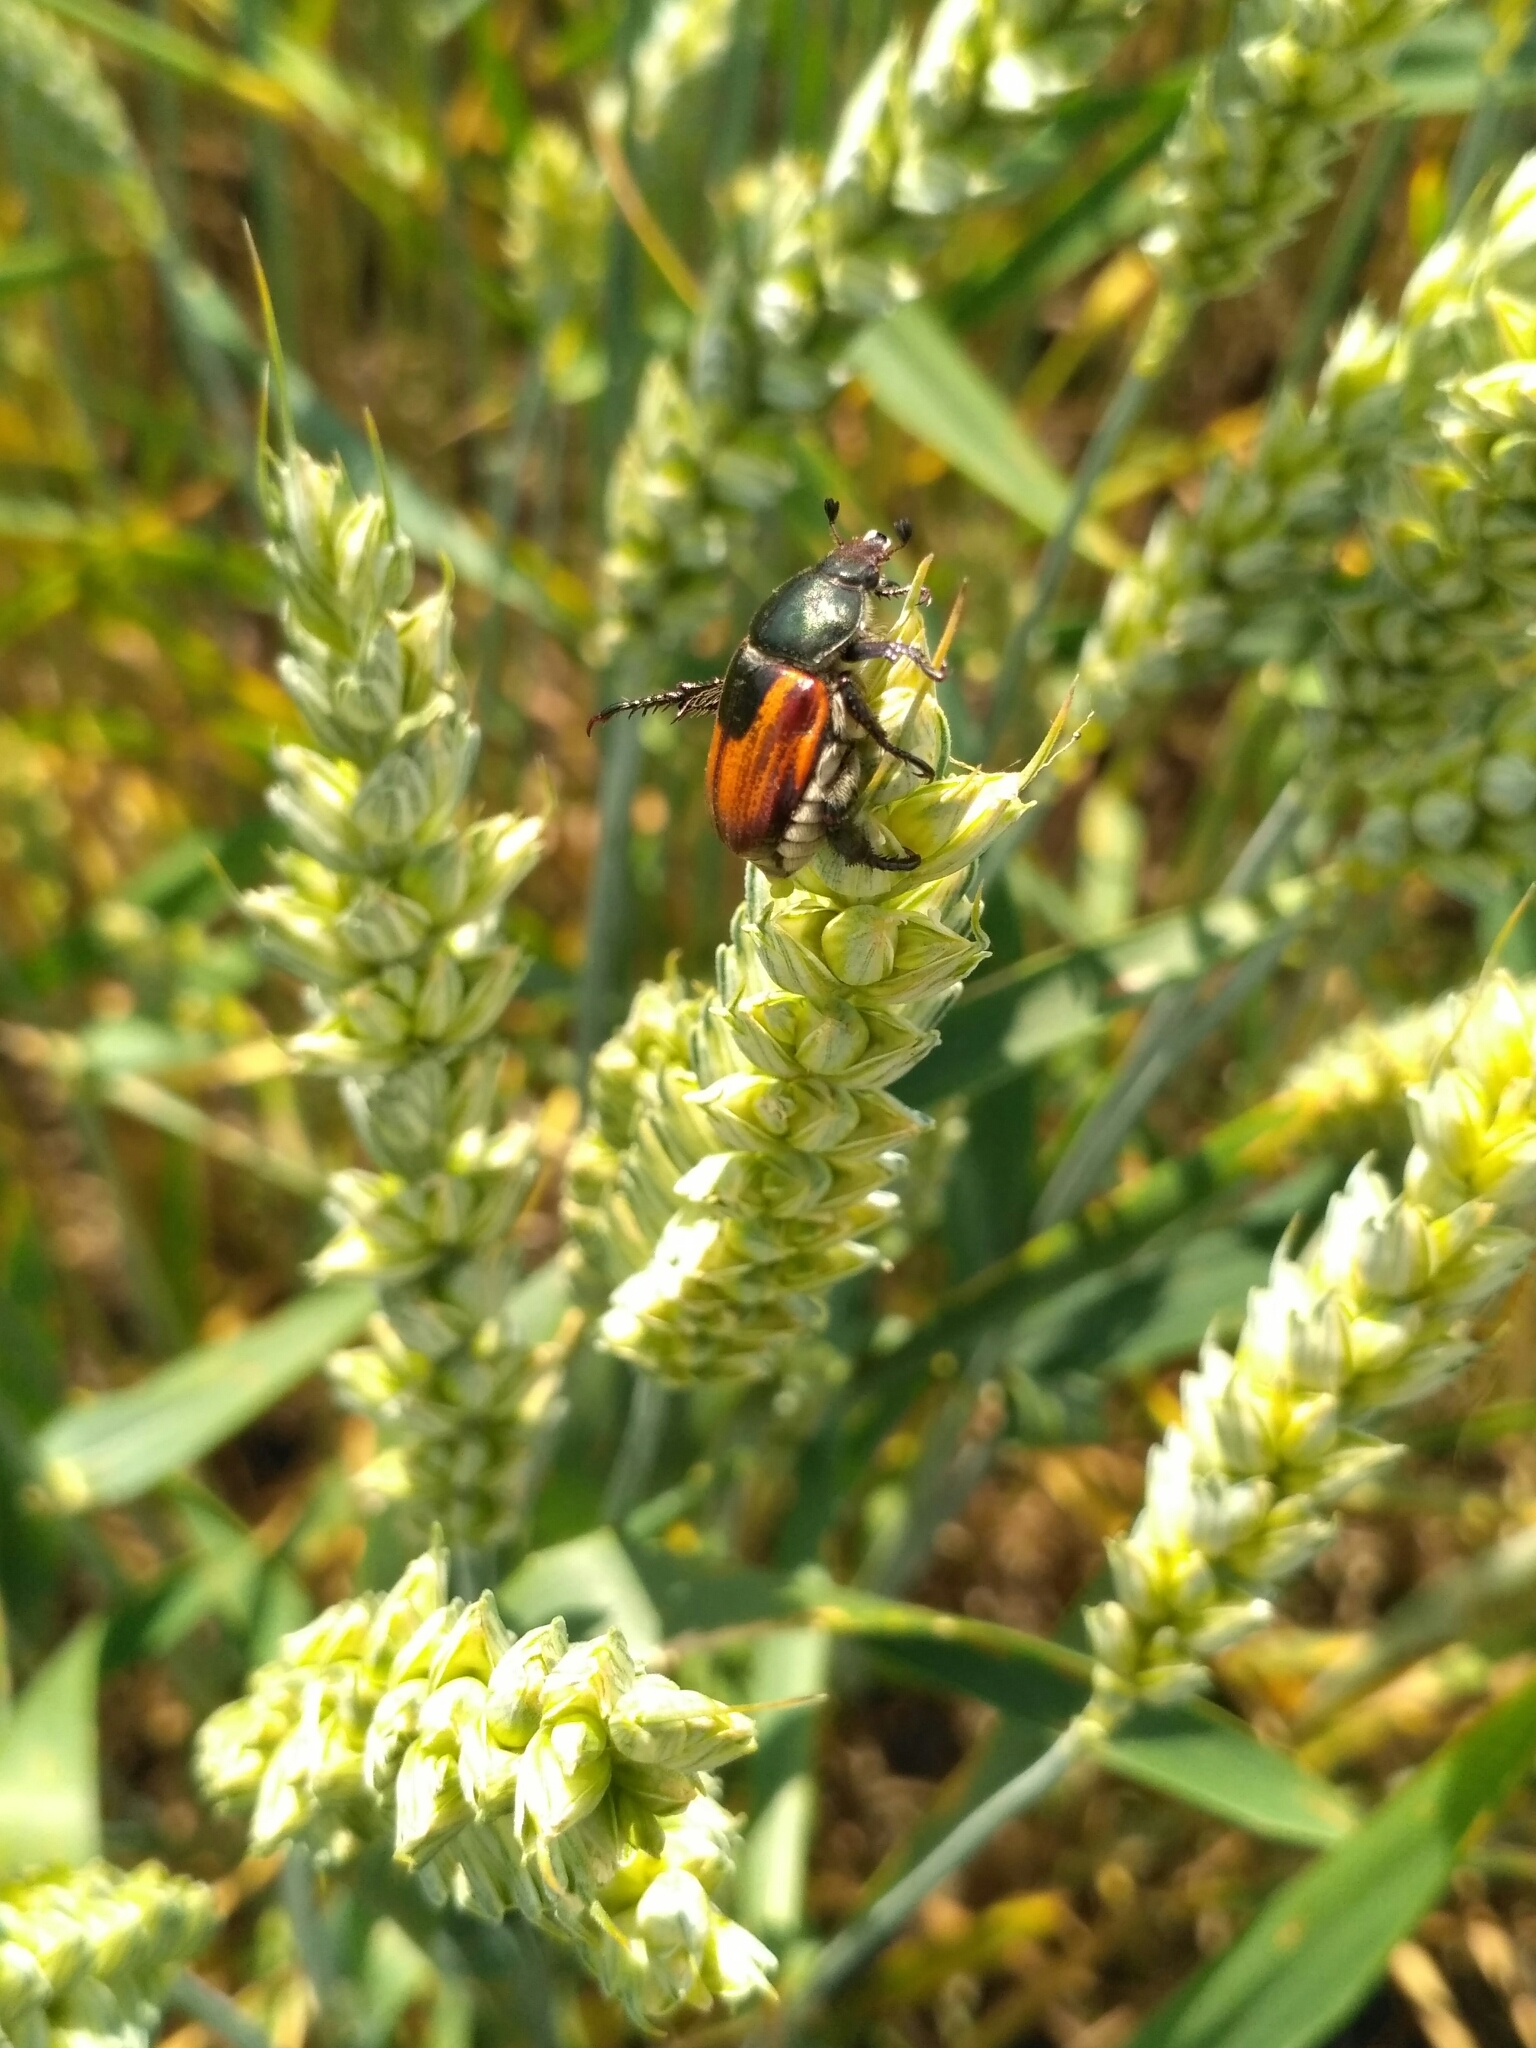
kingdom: Animalia
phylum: Arthropoda
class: Insecta
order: Coleoptera
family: Scarabaeidae
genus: Anisoplia
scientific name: Anisoplia austriaca
